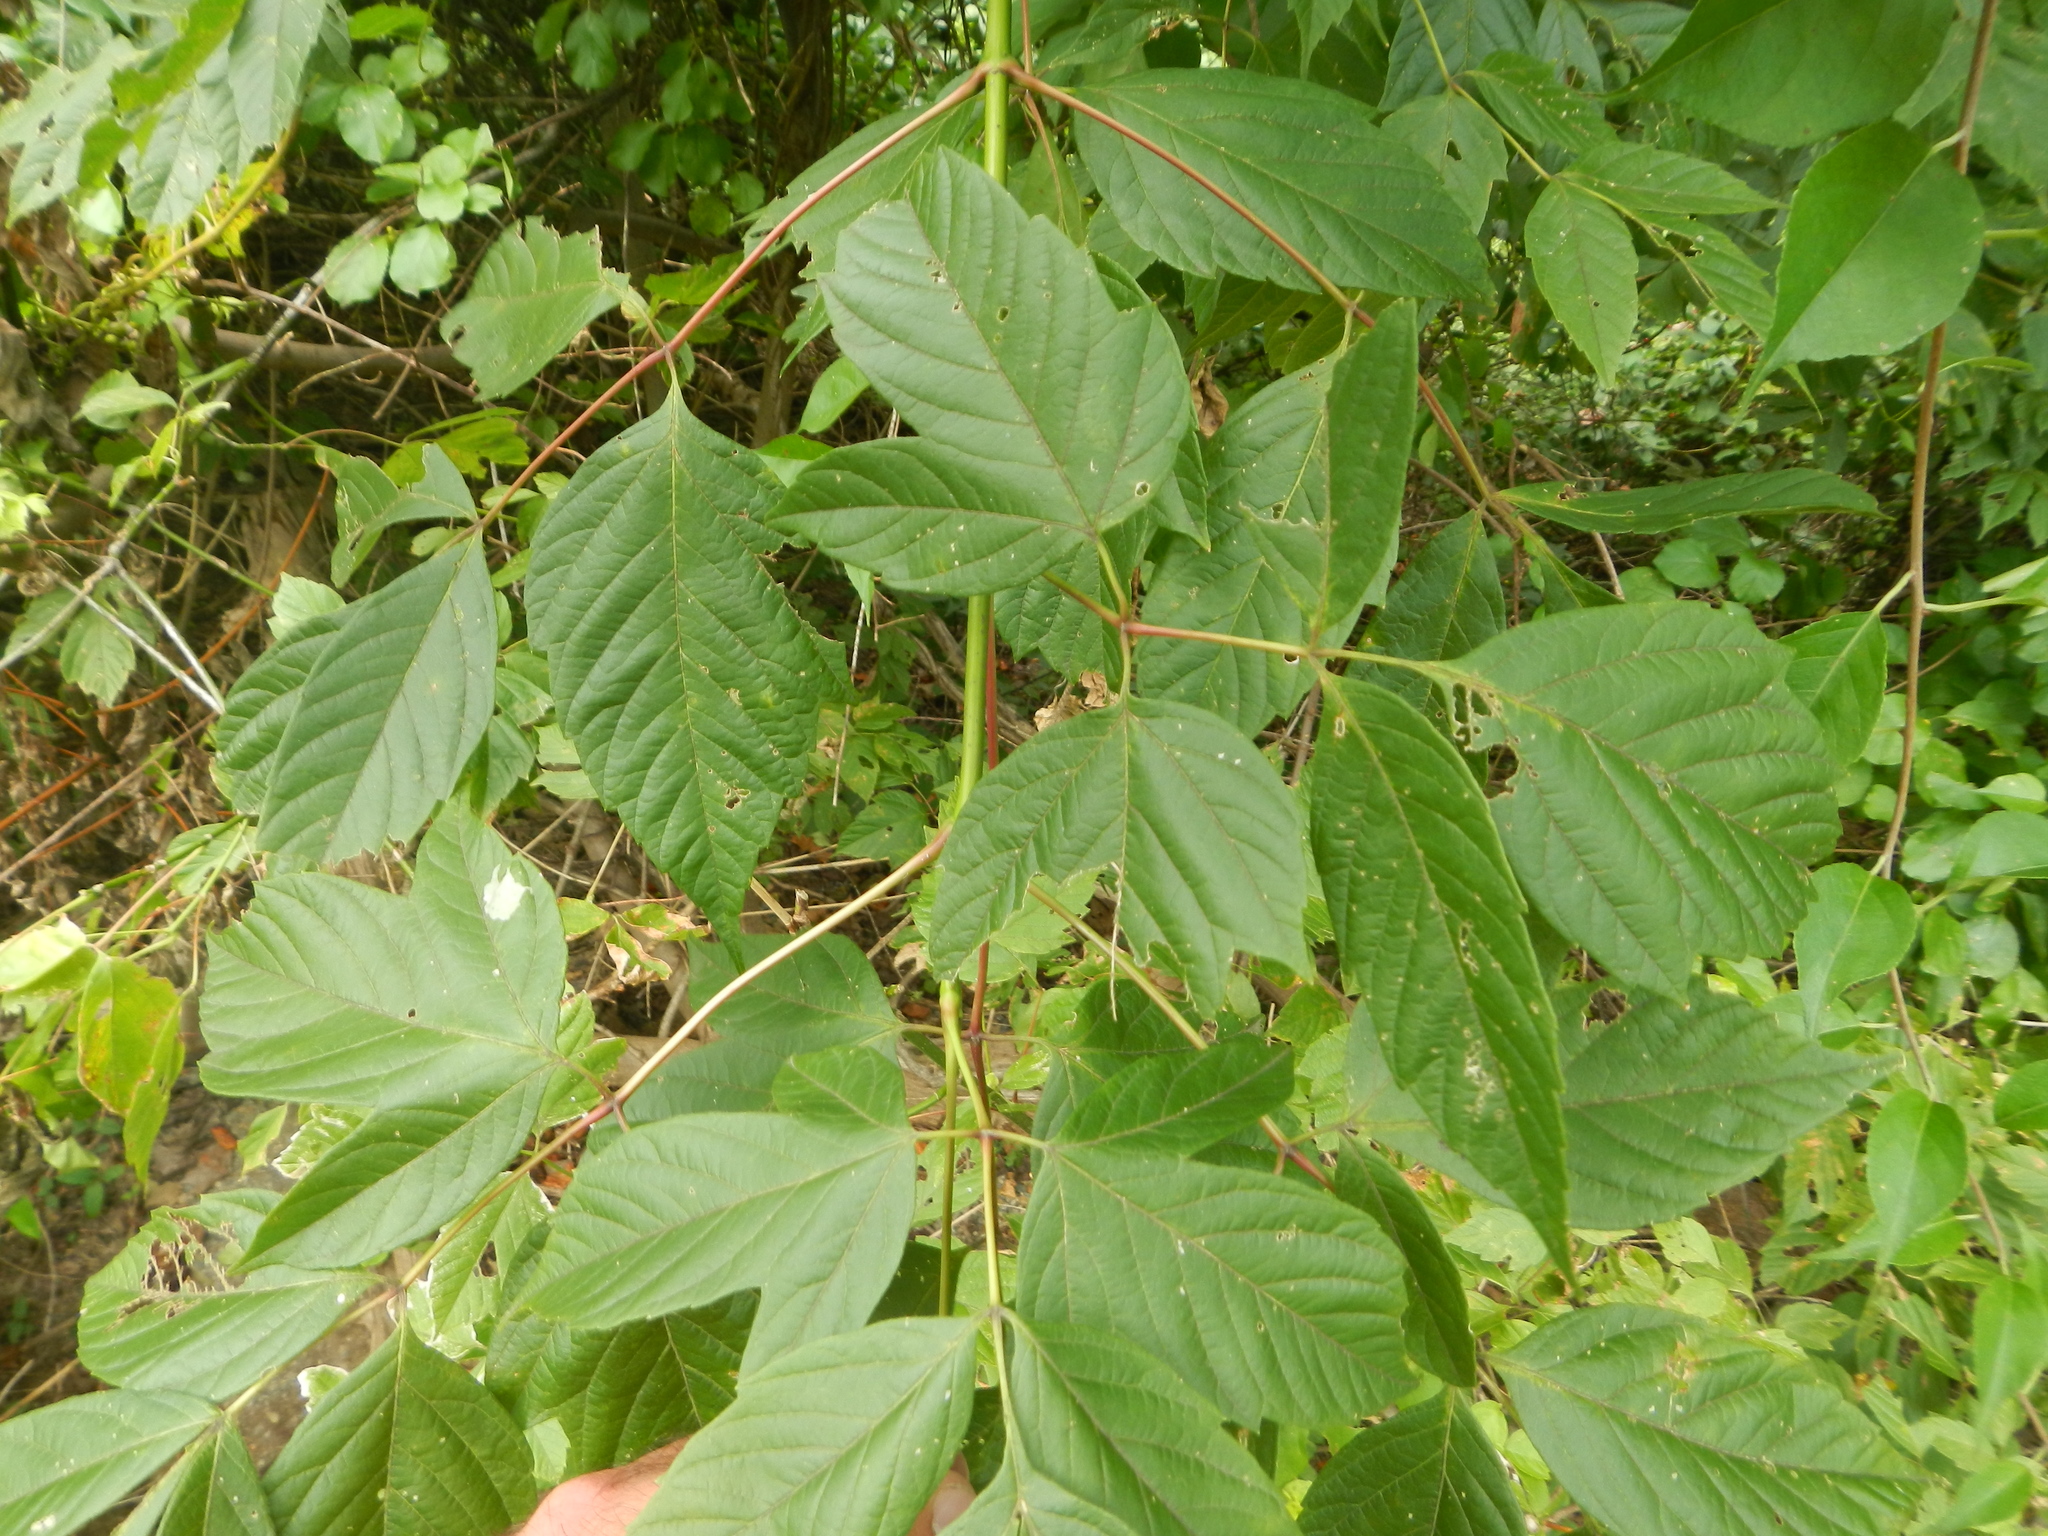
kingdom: Plantae
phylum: Tracheophyta
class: Magnoliopsida
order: Sapindales
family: Sapindaceae
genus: Acer
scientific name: Acer negundo
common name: Ashleaf maple
